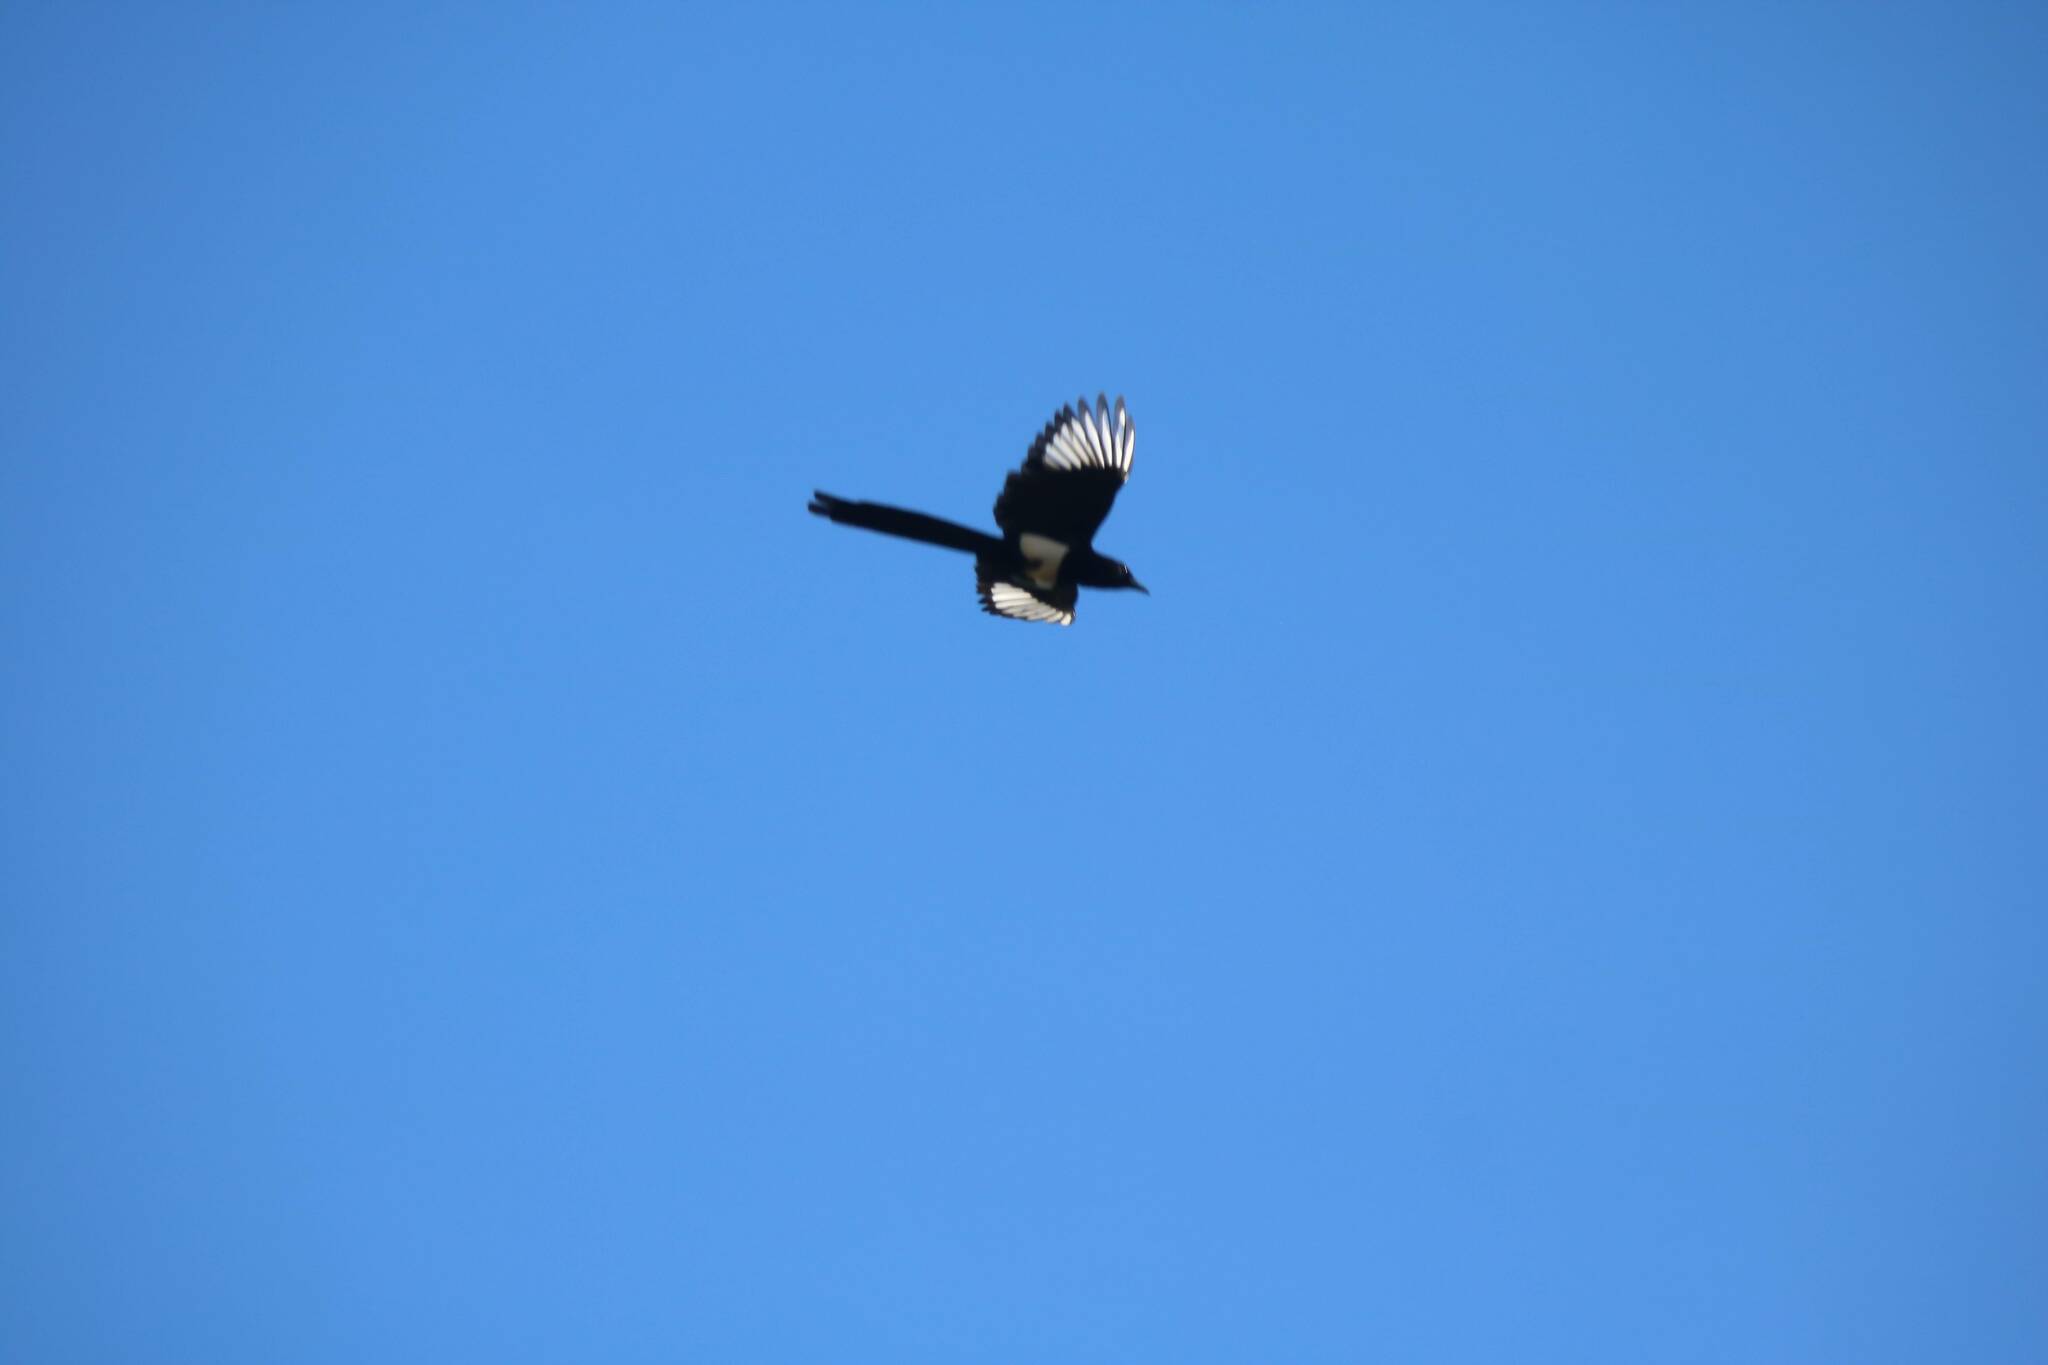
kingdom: Animalia
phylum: Chordata
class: Aves
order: Passeriformes
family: Corvidae
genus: Pica
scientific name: Pica mauritanica
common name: Maghreb magpie
